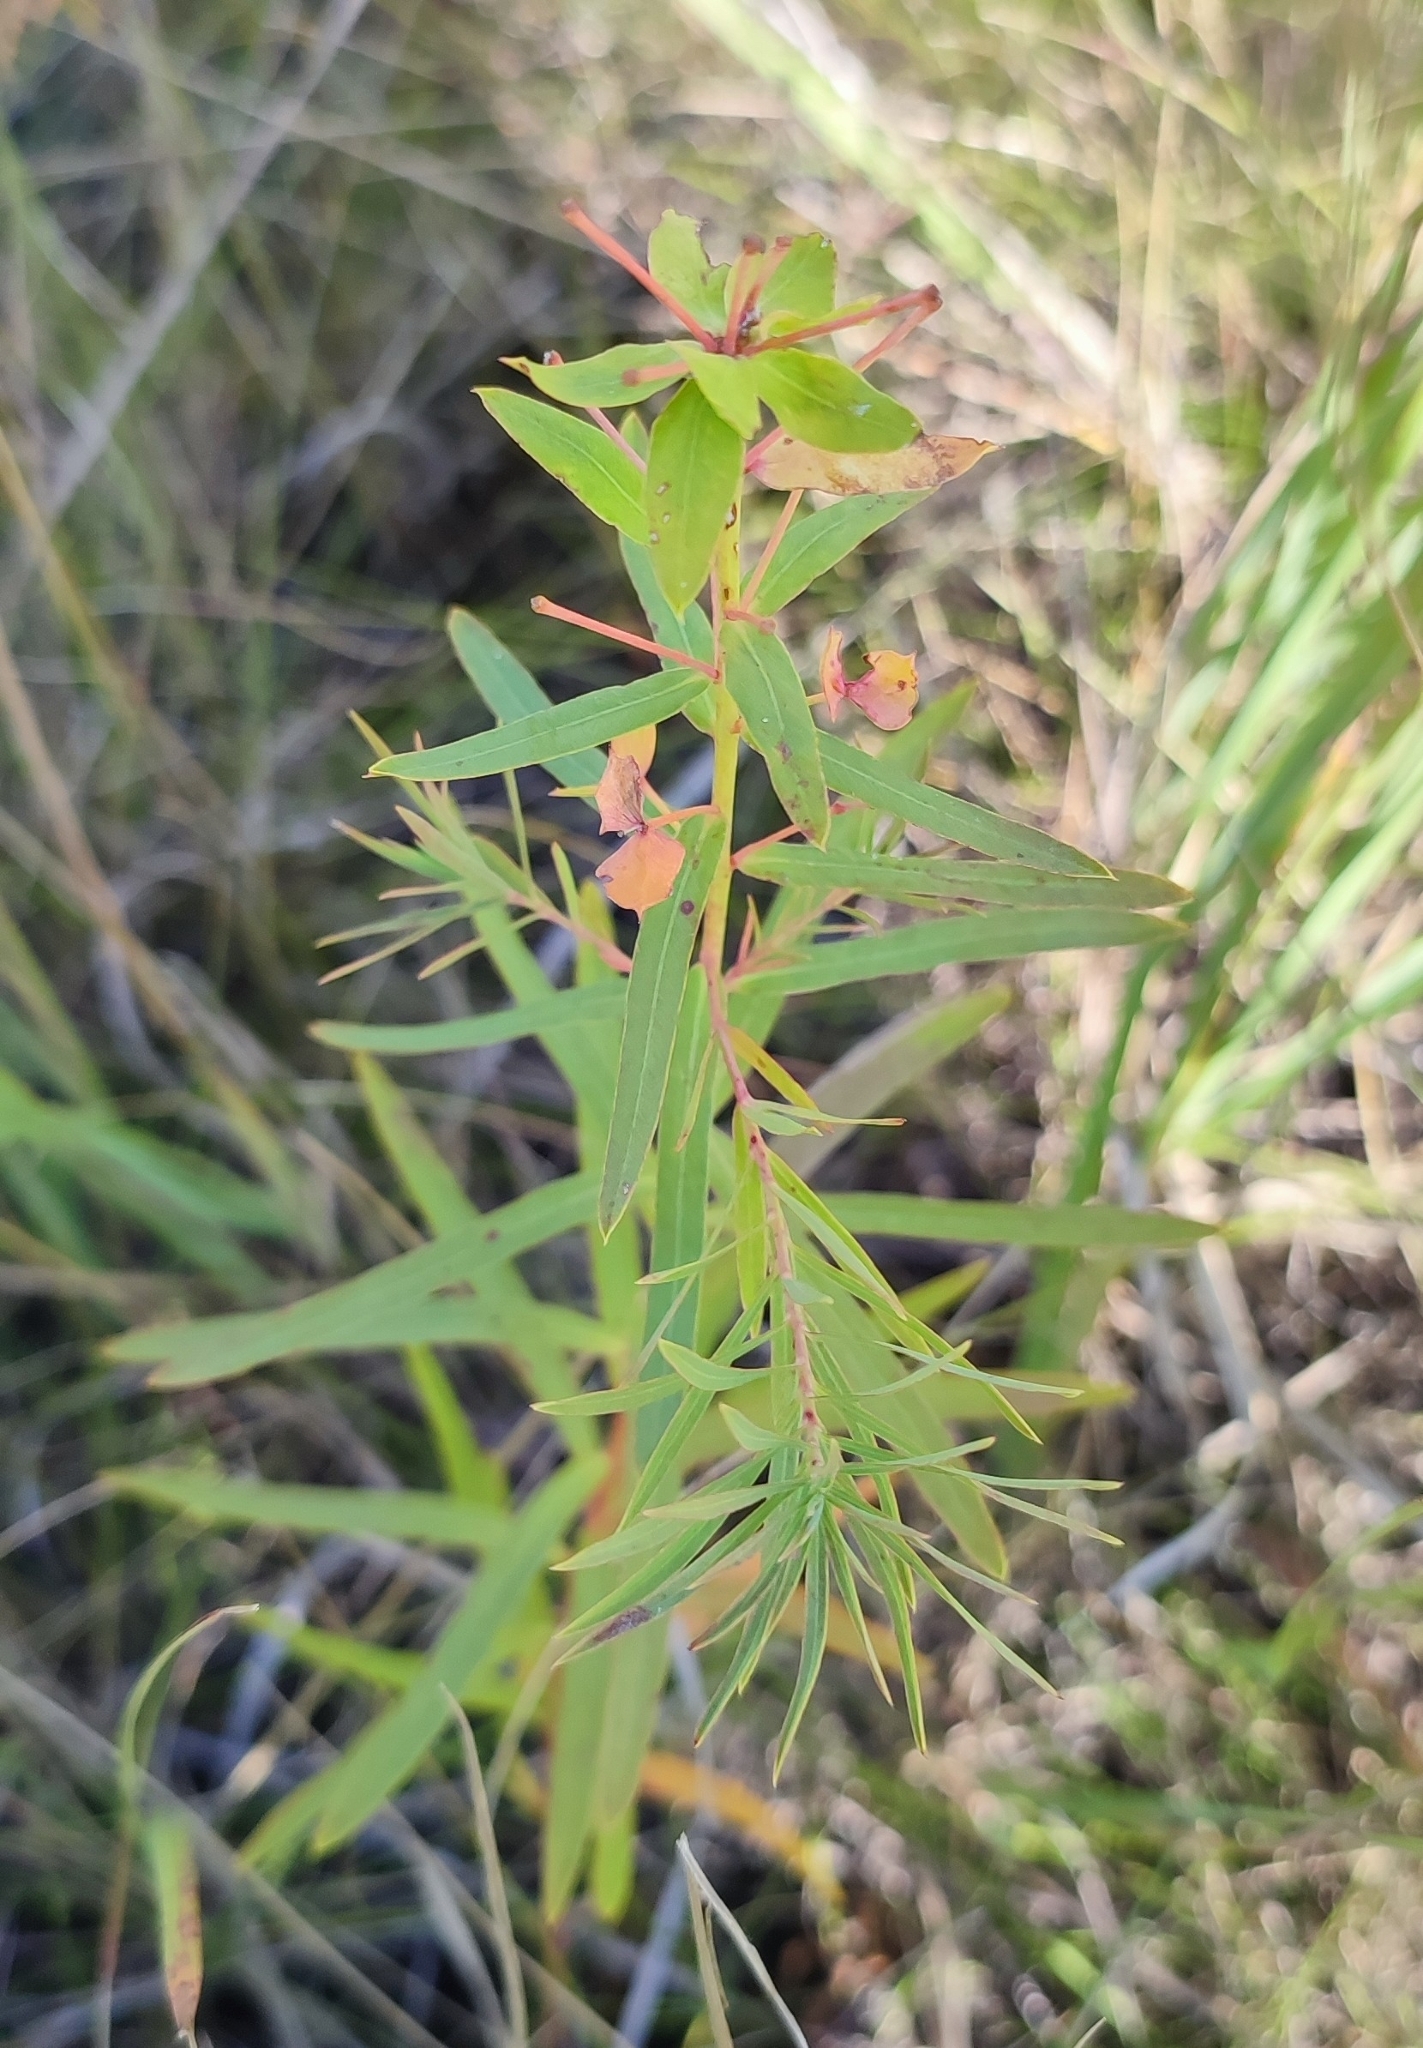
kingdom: Plantae
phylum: Tracheophyta
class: Magnoliopsida
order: Malpighiales
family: Euphorbiaceae
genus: Euphorbia
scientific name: Euphorbia virgata
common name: Leafy spurge
